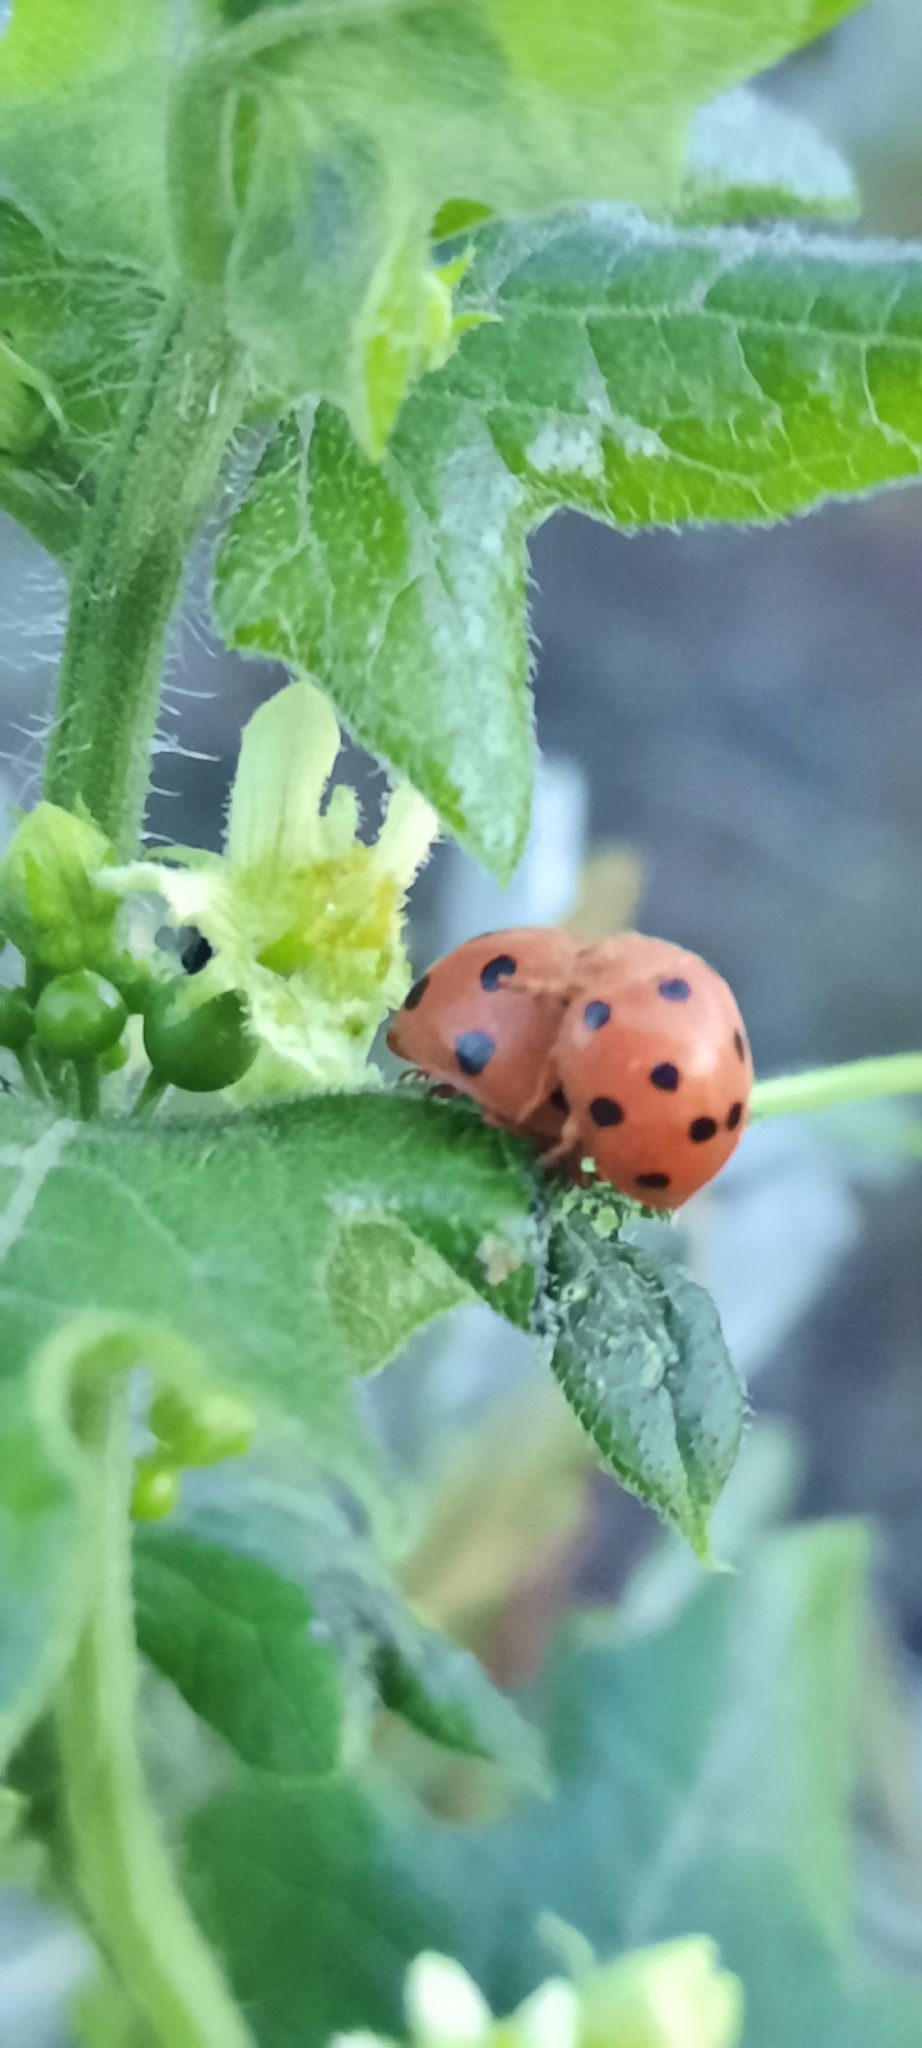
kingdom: Animalia
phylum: Arthropoda
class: Insecta
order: Coleoptera
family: Coccinellidae
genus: Henosepilachna
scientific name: Henosepilachna argus
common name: Bryony ladybird
